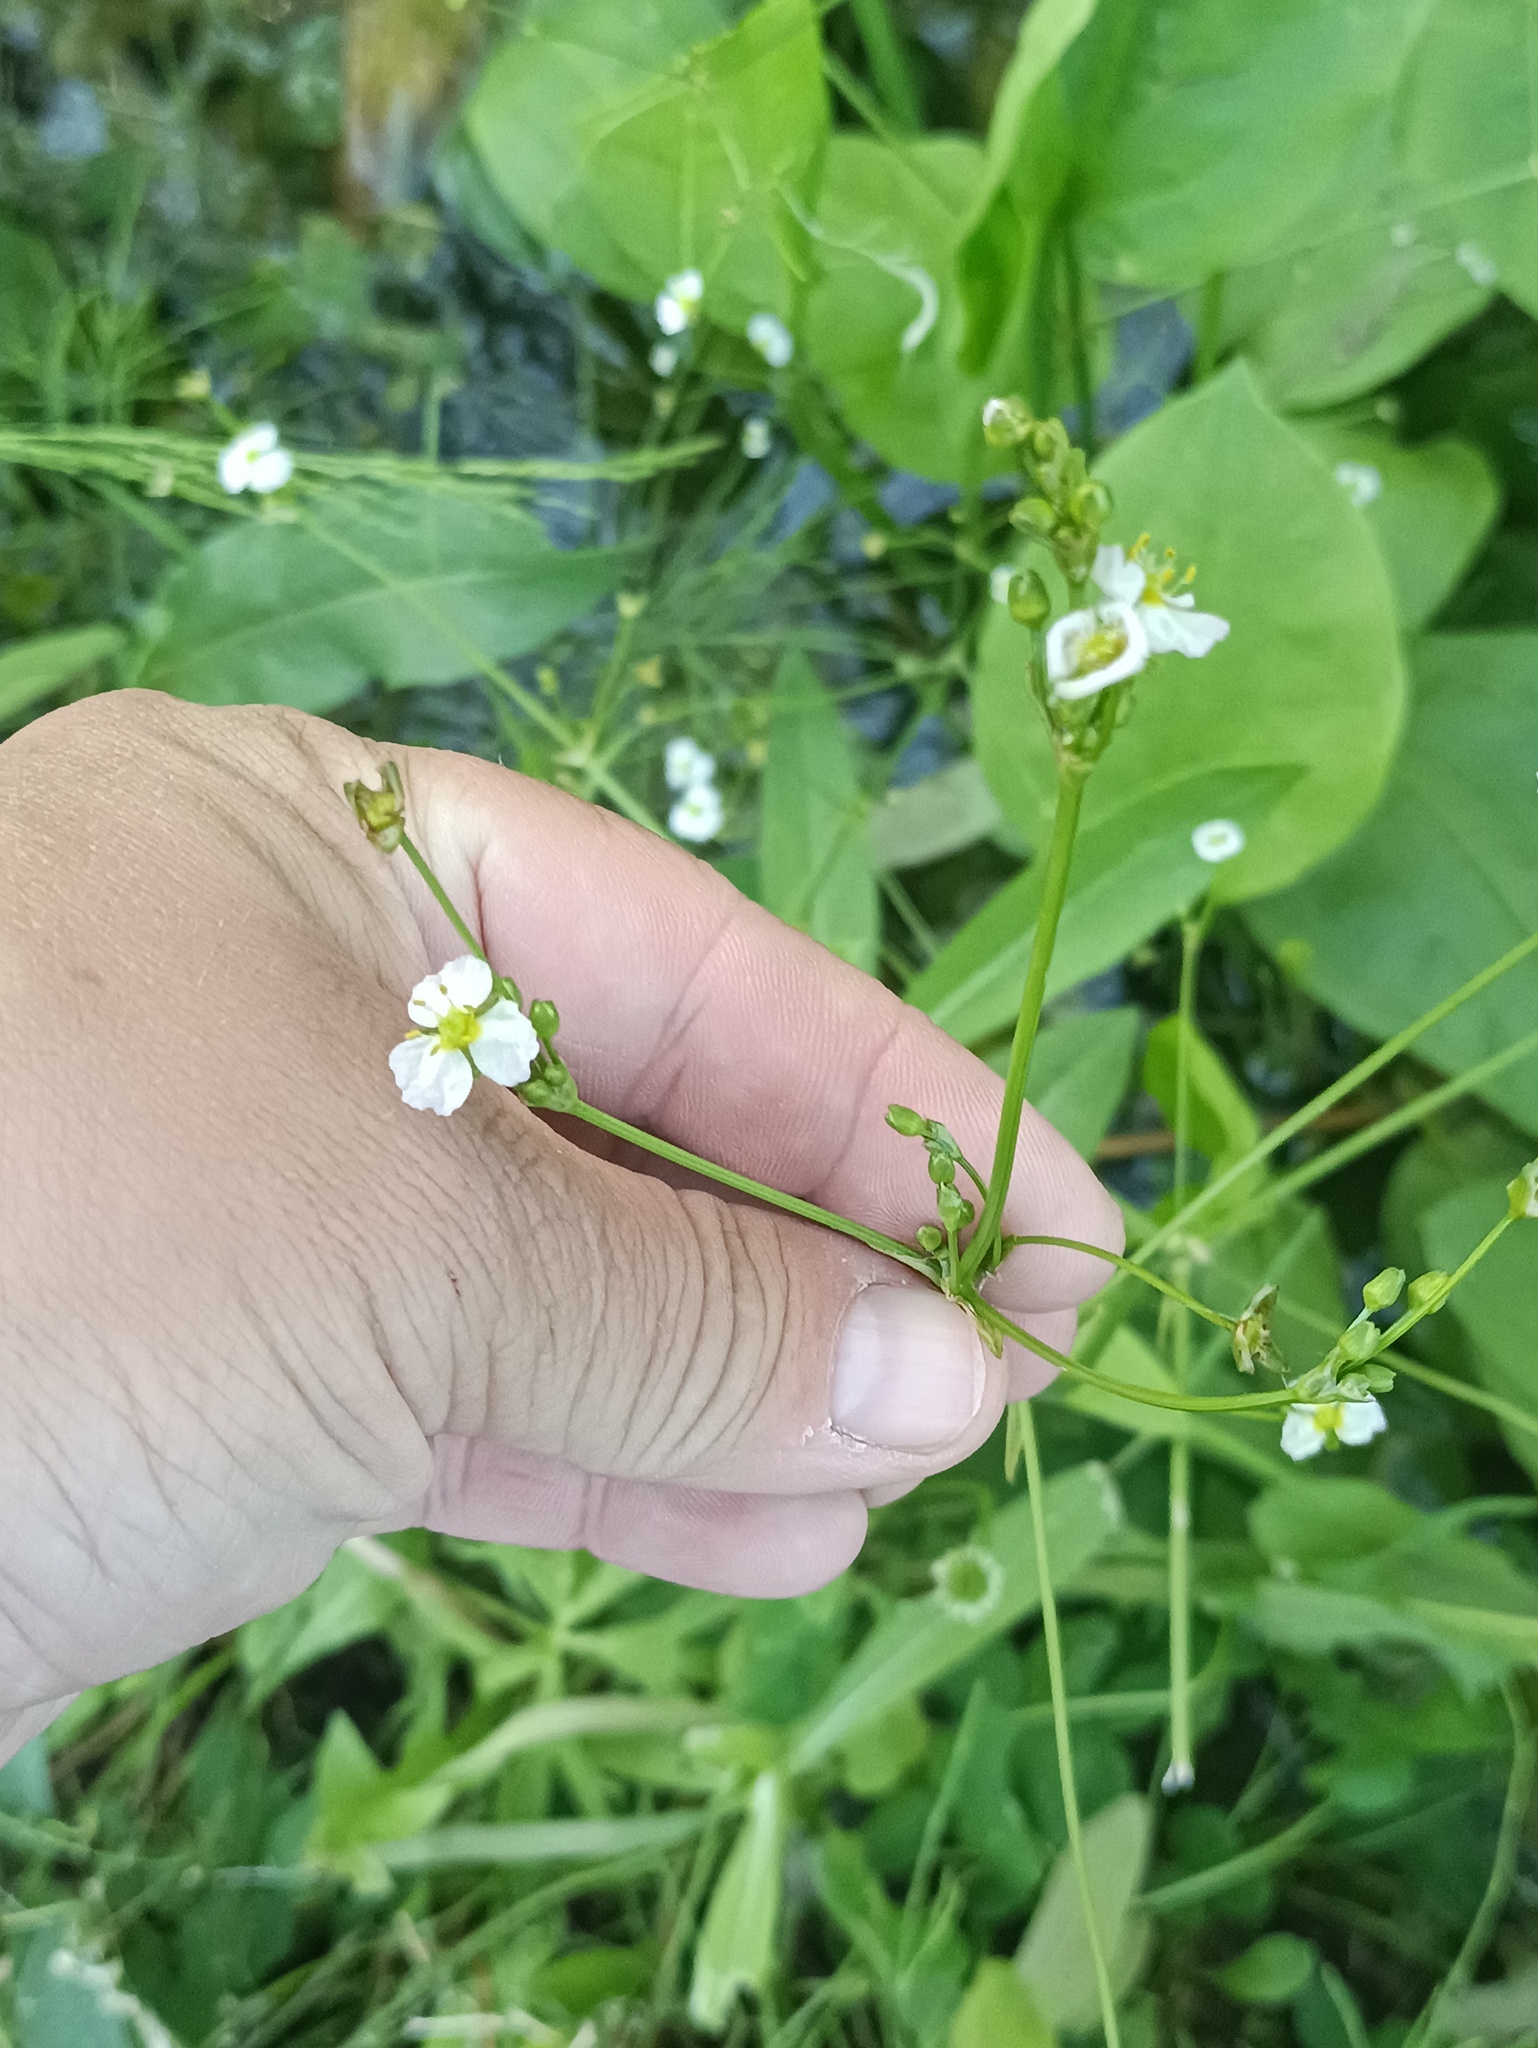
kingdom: Plantae
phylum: Tracheophyta
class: Liliopsida
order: Alismatales
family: Alismataceae
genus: Alisma
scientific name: Alisma plantago-aquatica
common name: Water-plantain
